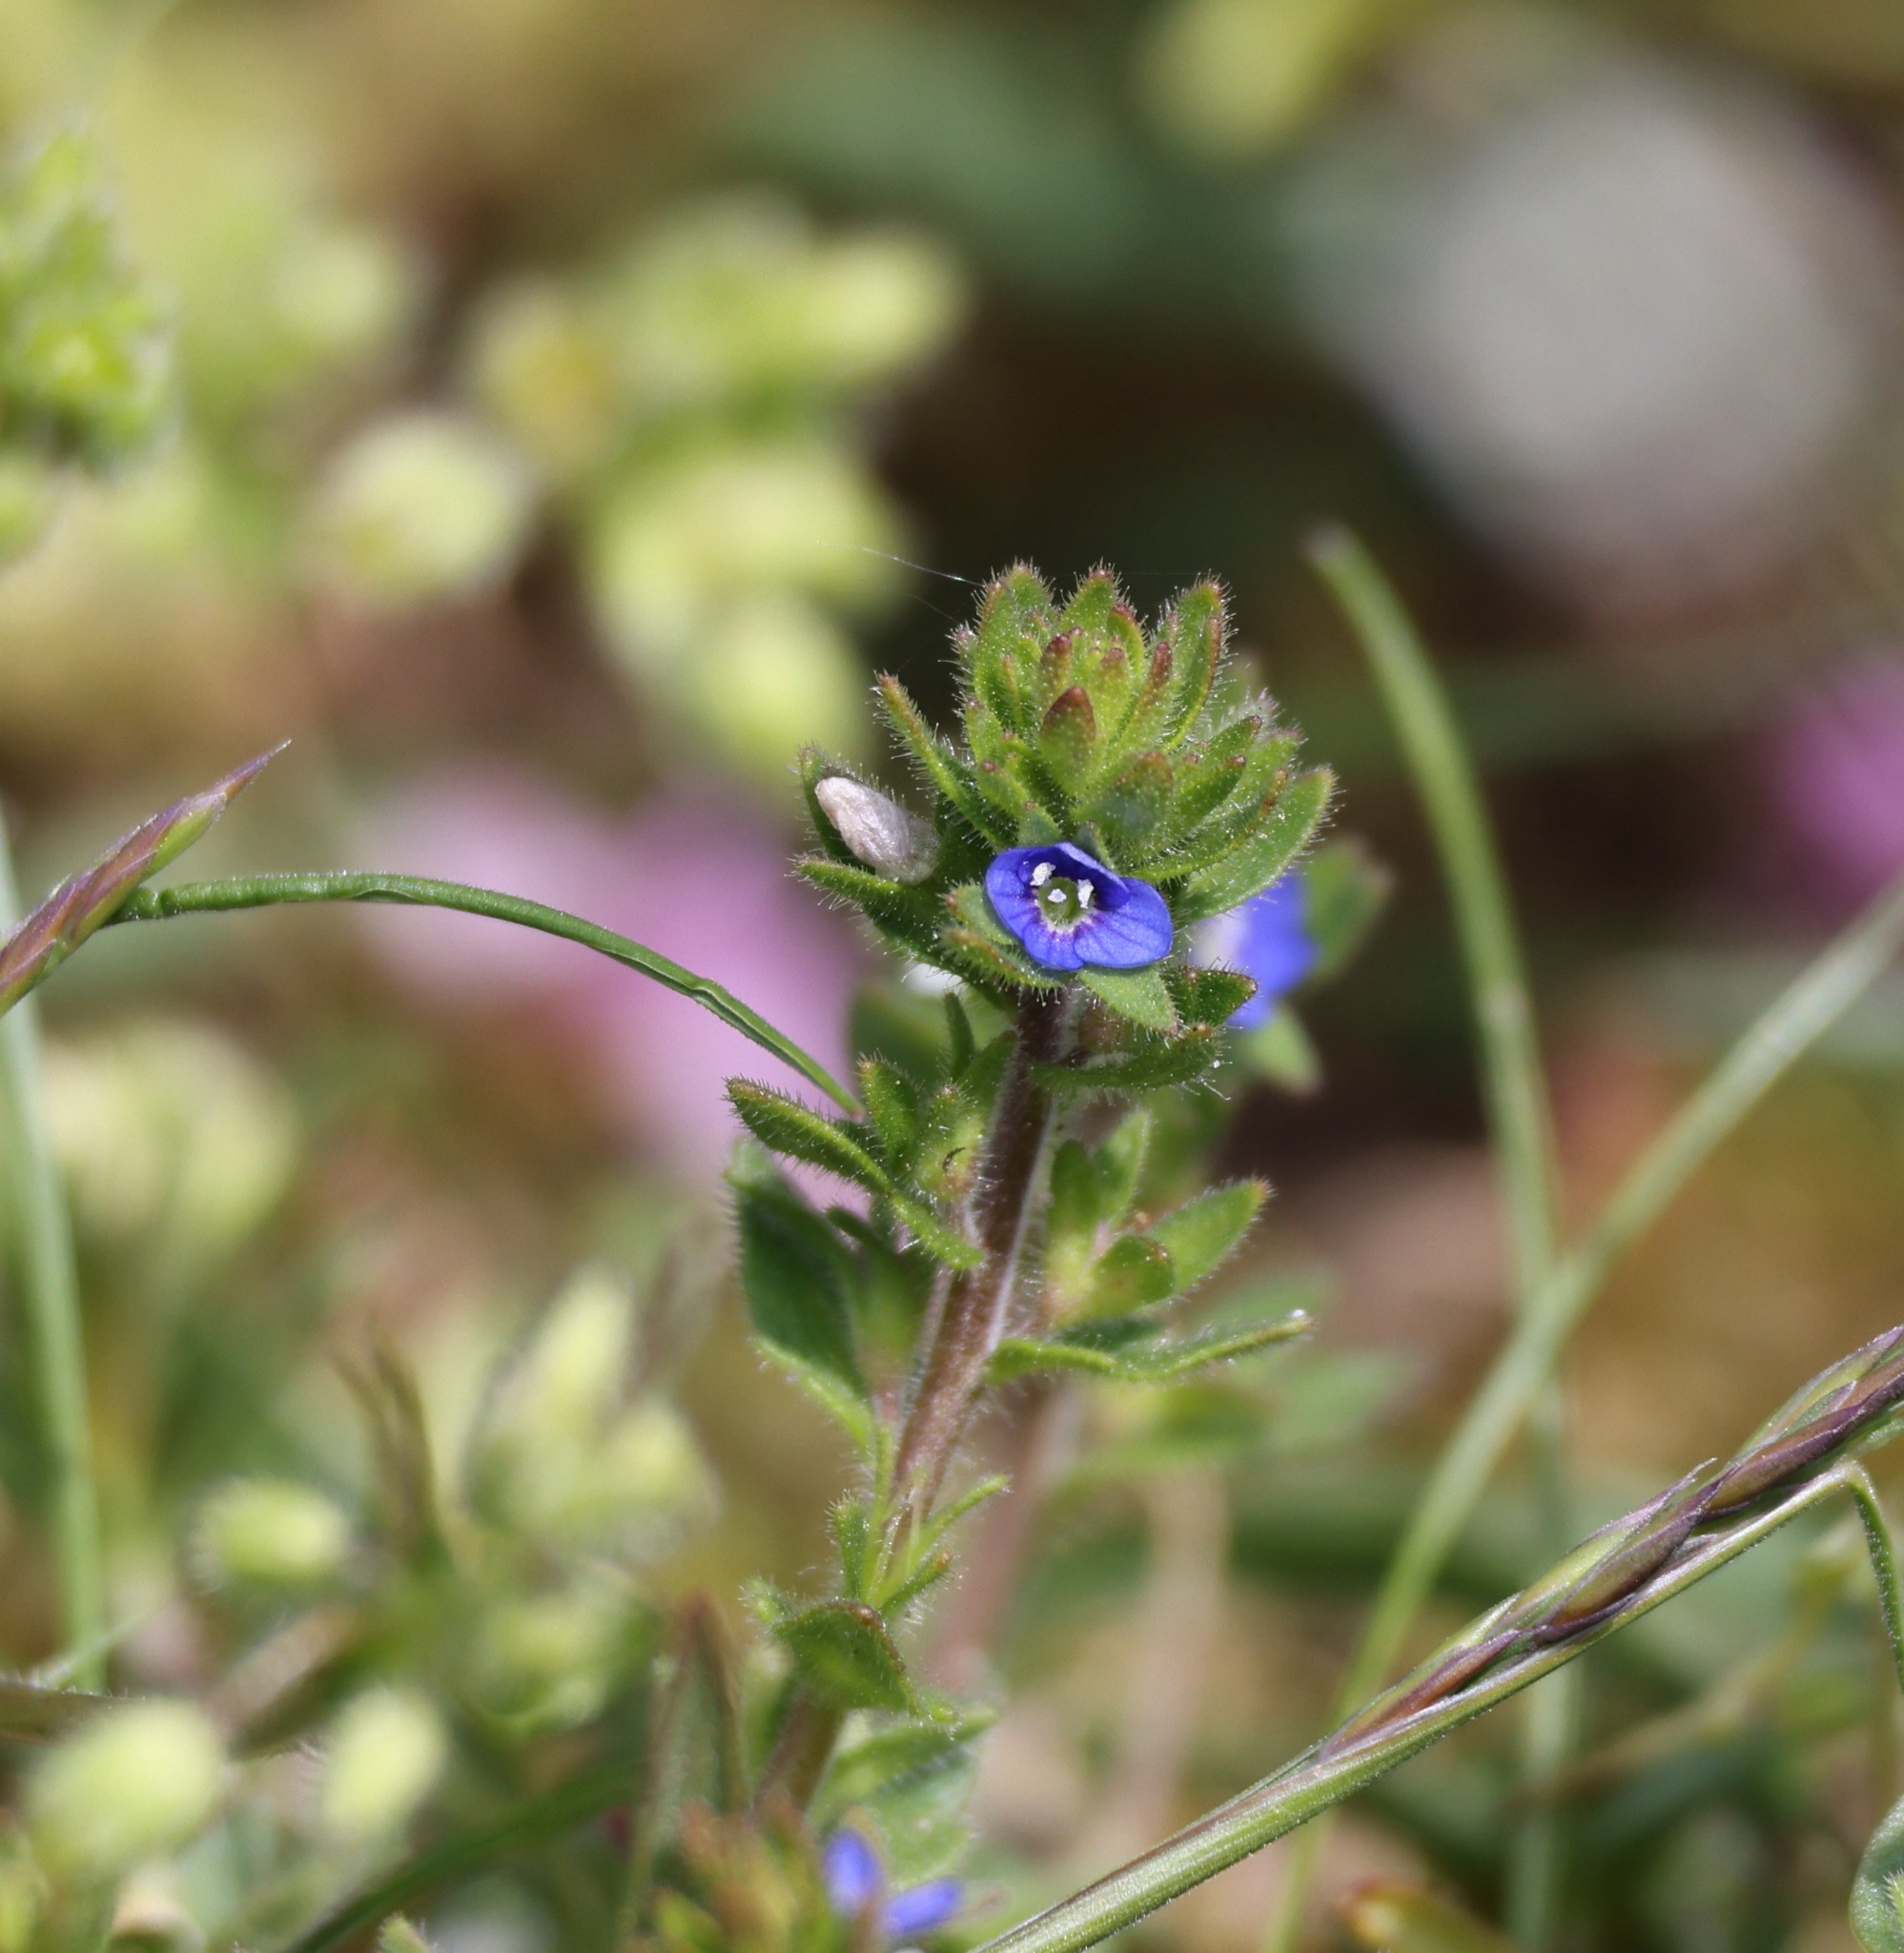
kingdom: Plantae
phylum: Tracheophyta
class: Magnoliopsida
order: Lamiales
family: Plantaginaceae
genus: Veronica
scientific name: Veronica arvensis
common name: Corn speedwell
